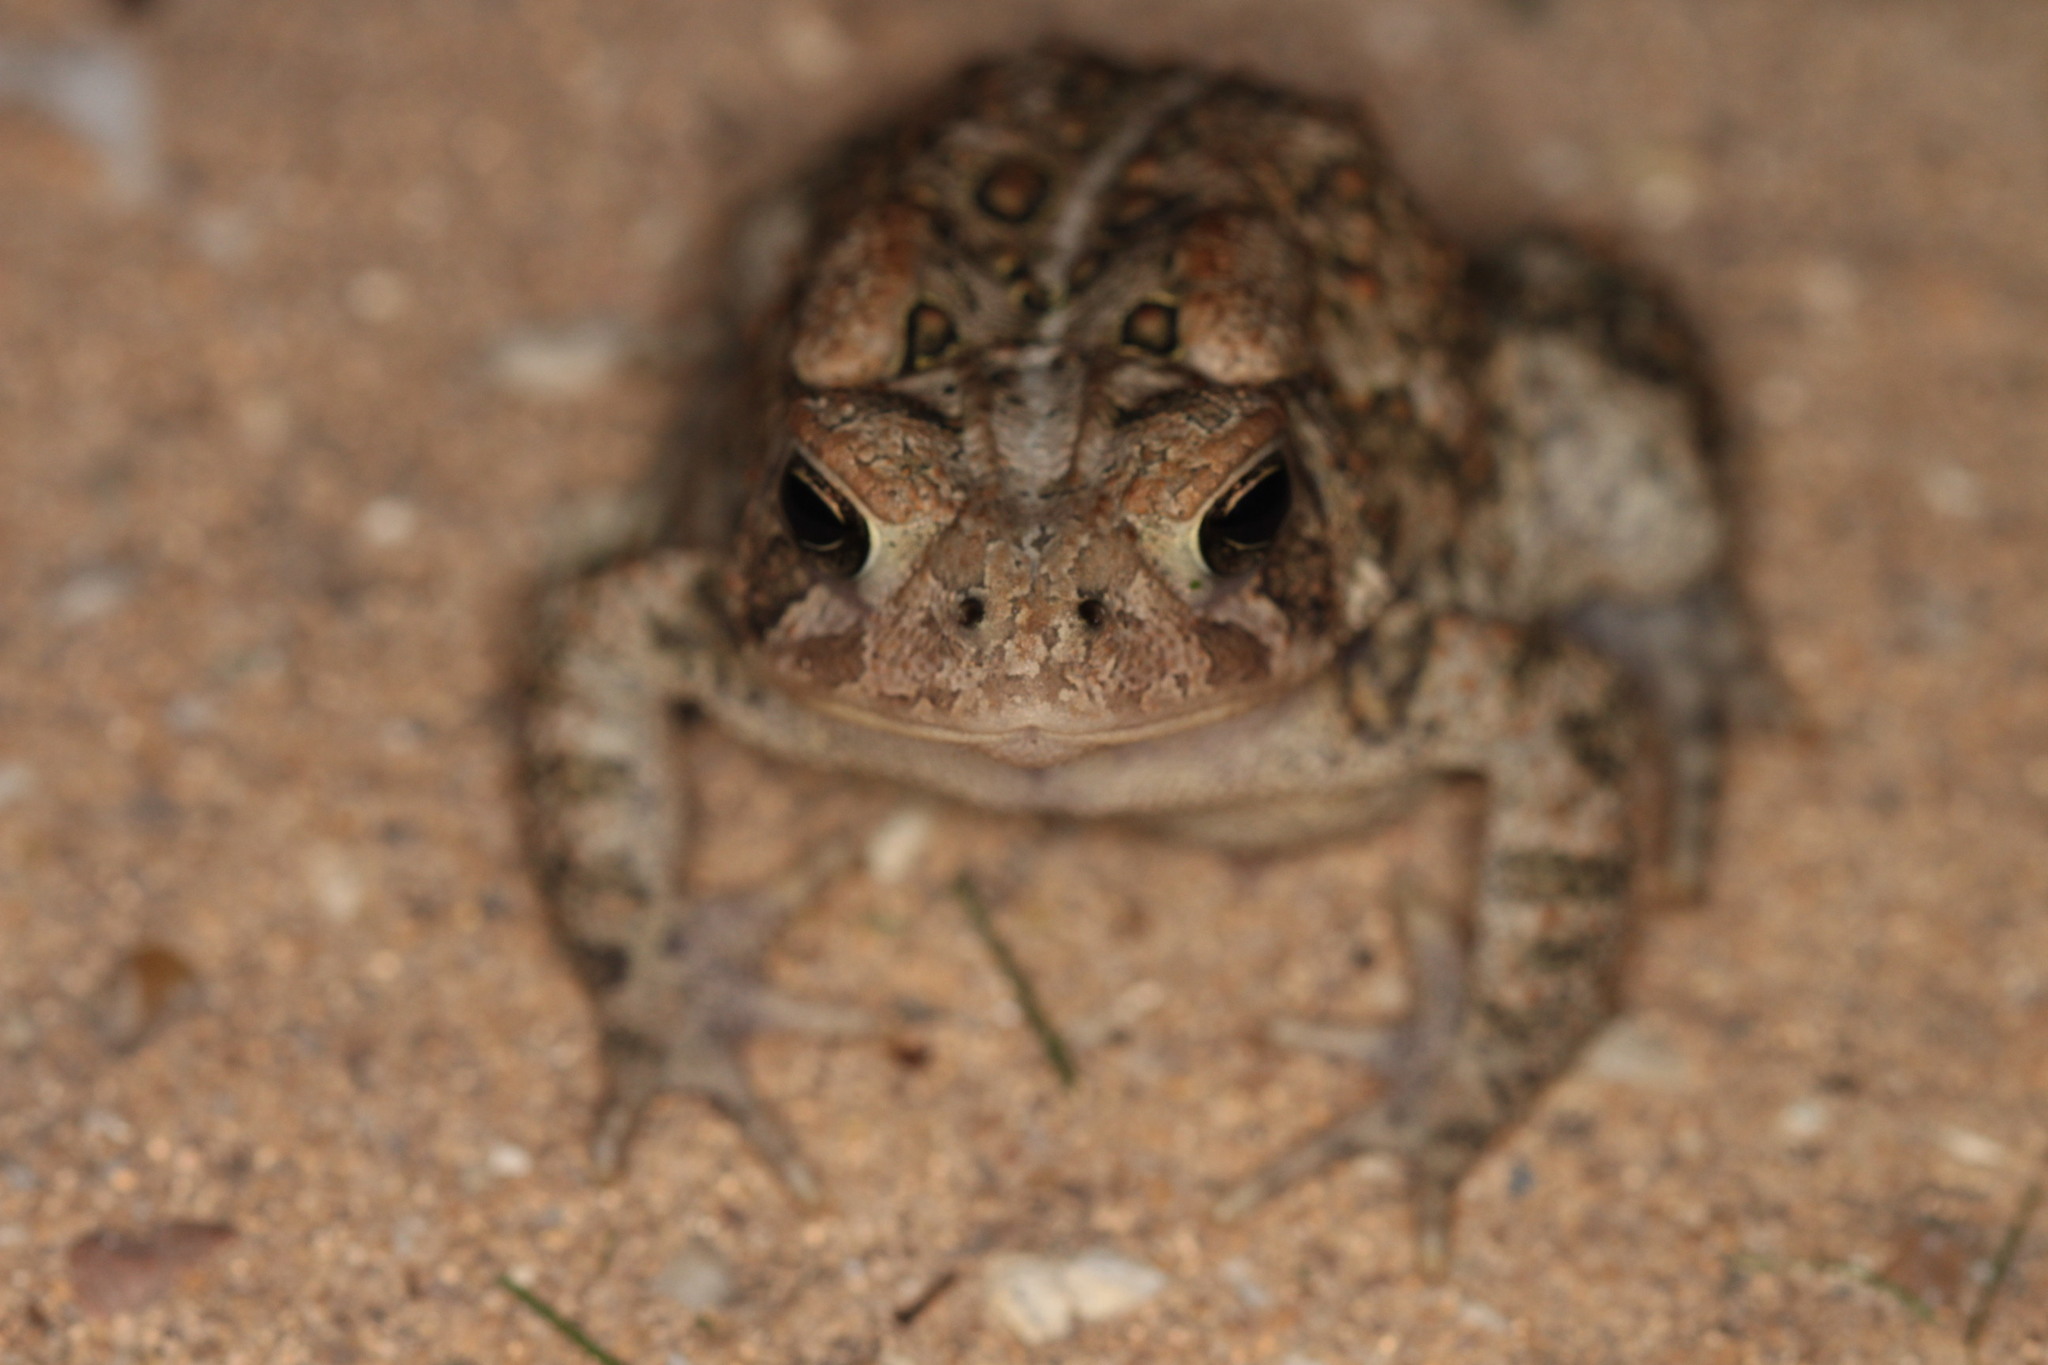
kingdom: Animalia
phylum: Chordata
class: Amphibia
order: Anura
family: Bufonidae
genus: Anaxyrus
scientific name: Anaxyrus americanus
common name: American toad
